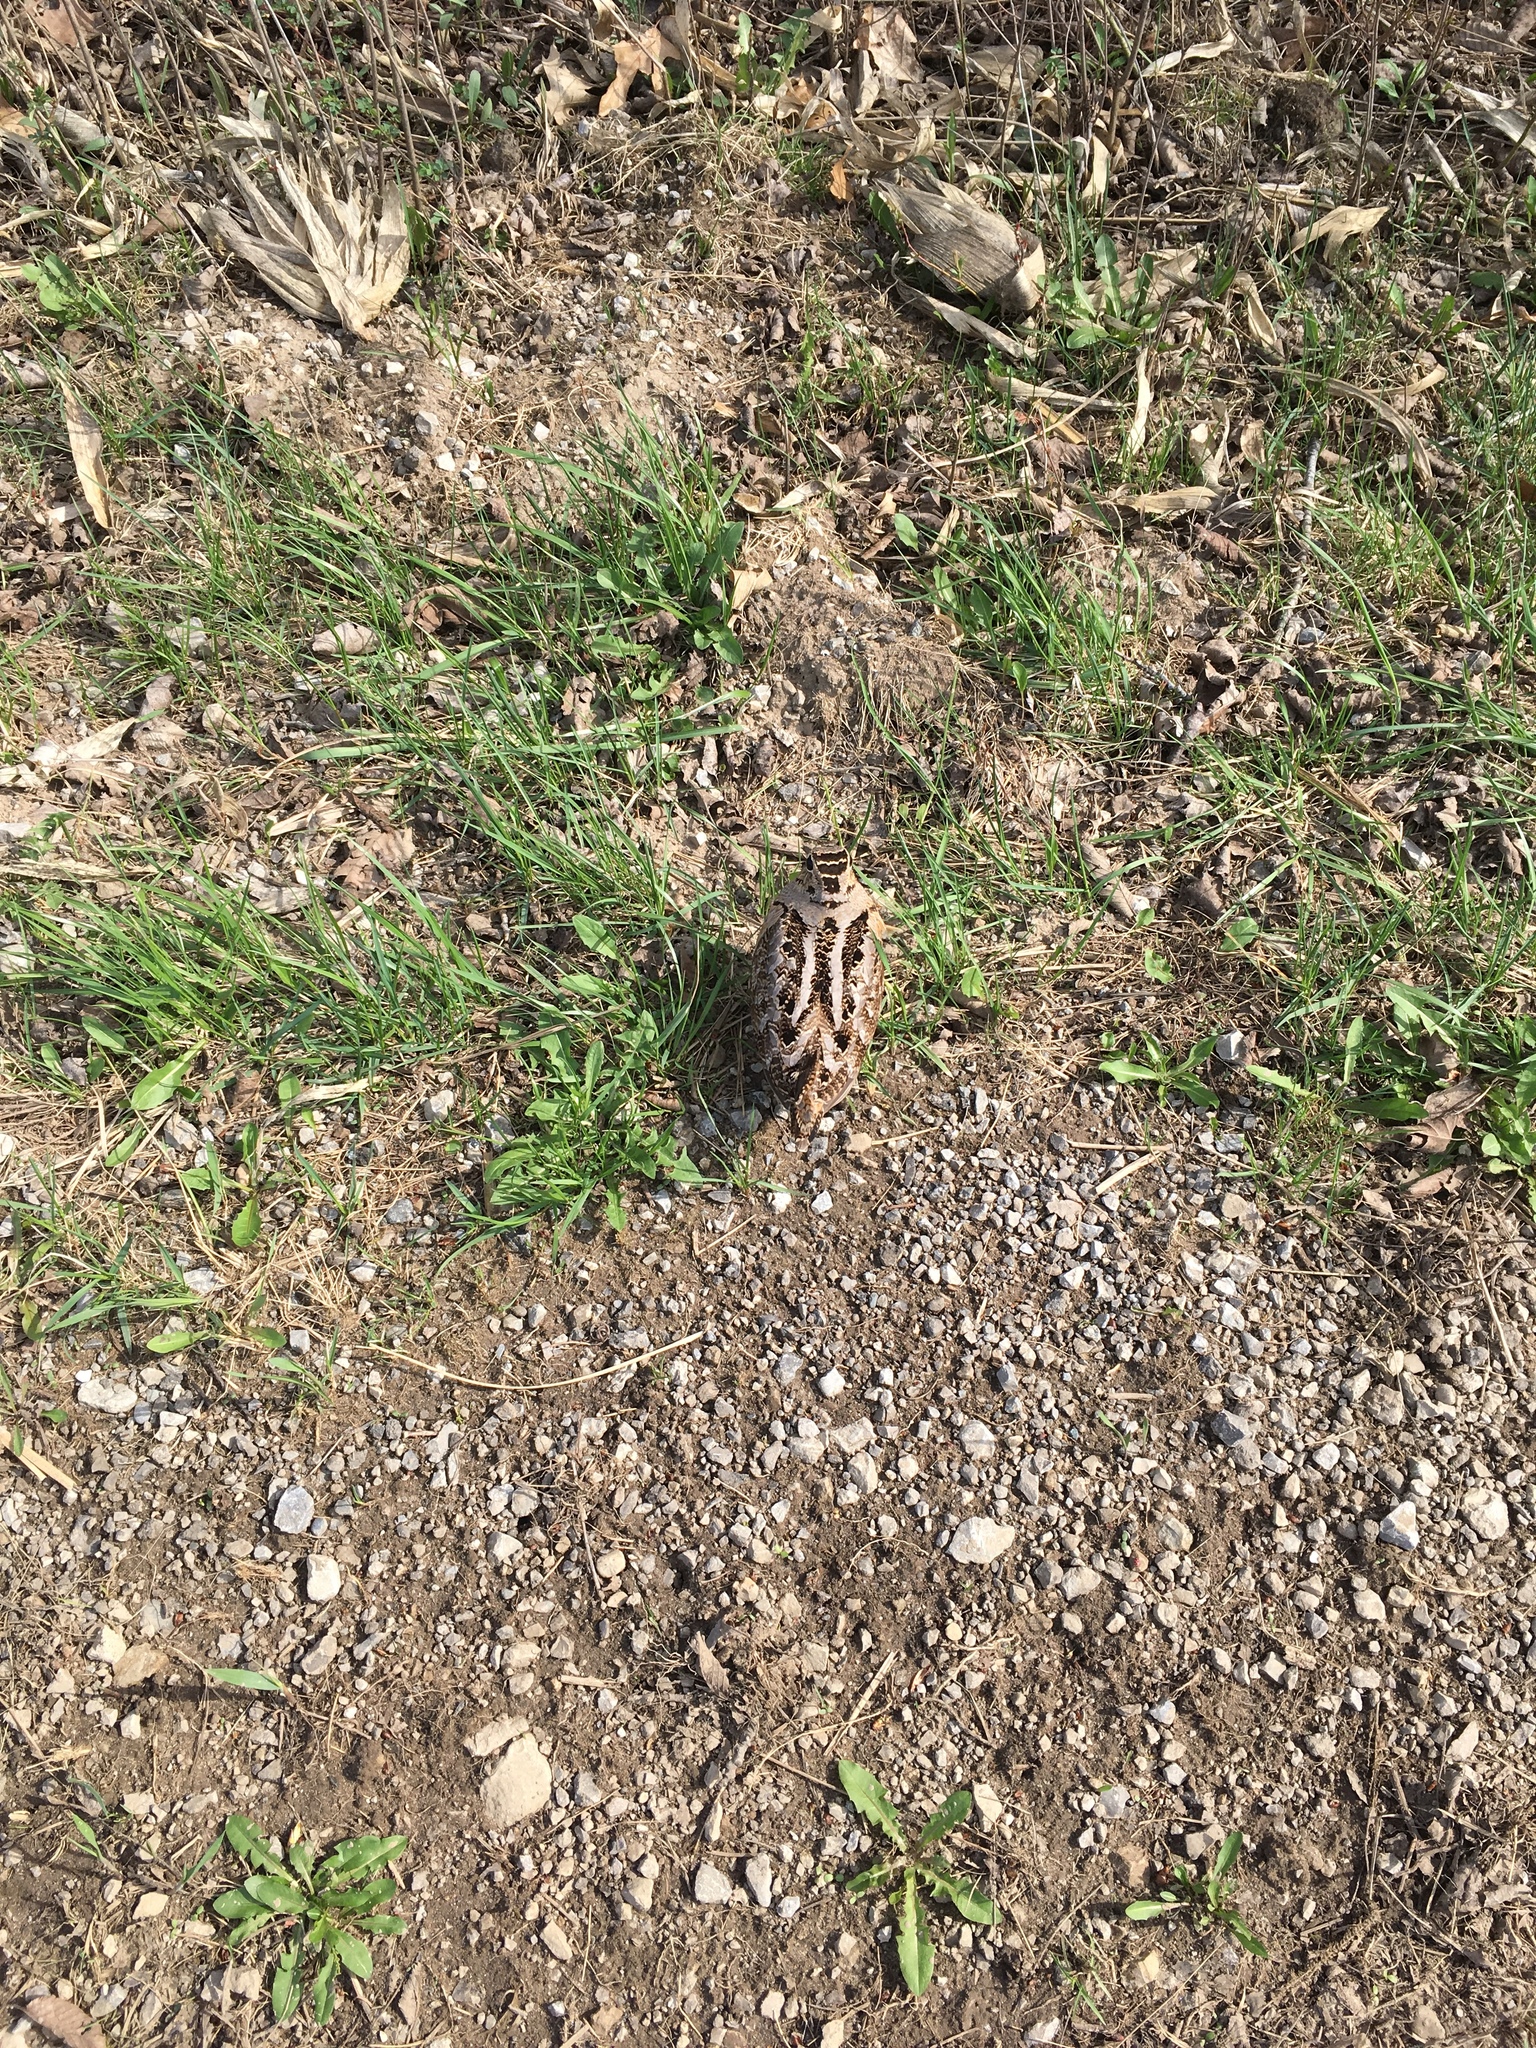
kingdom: Animalia
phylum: Chordata
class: Aves
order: Charadriiformes
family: Scolopacidae
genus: Scolopax
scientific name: Scolopax minor
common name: American woodcock
